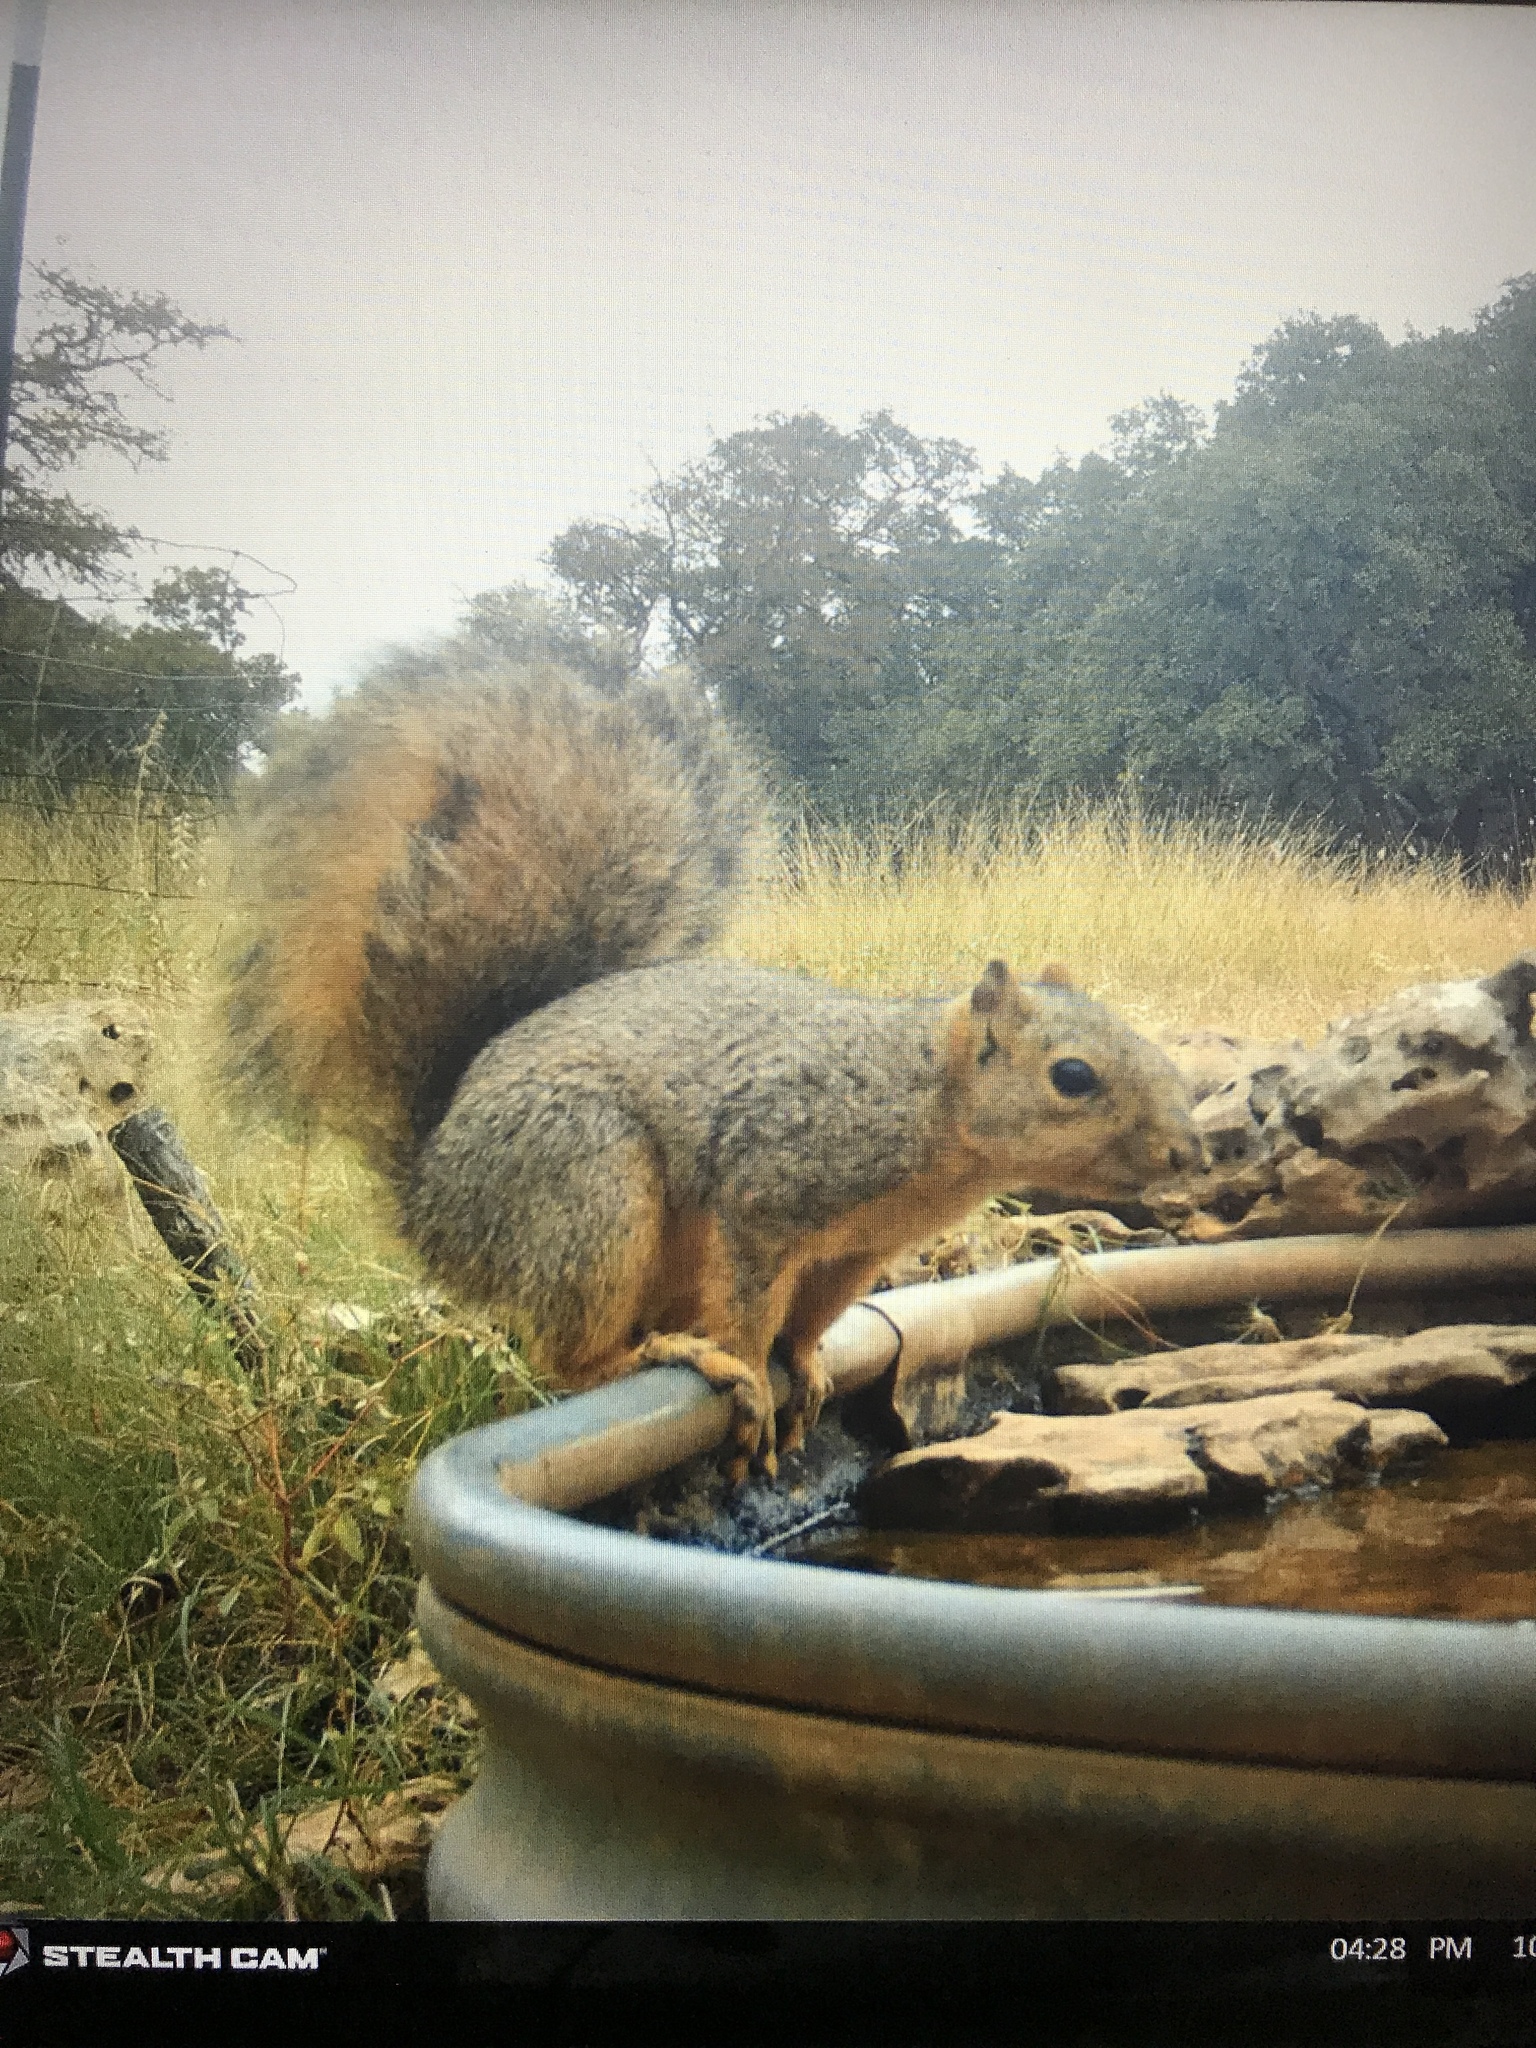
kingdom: Animalia
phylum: Chordata
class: Mammalia
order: Rodentia
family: Sciuridae
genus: Sciurus
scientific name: Sciurus niger
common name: Fox squirrel
